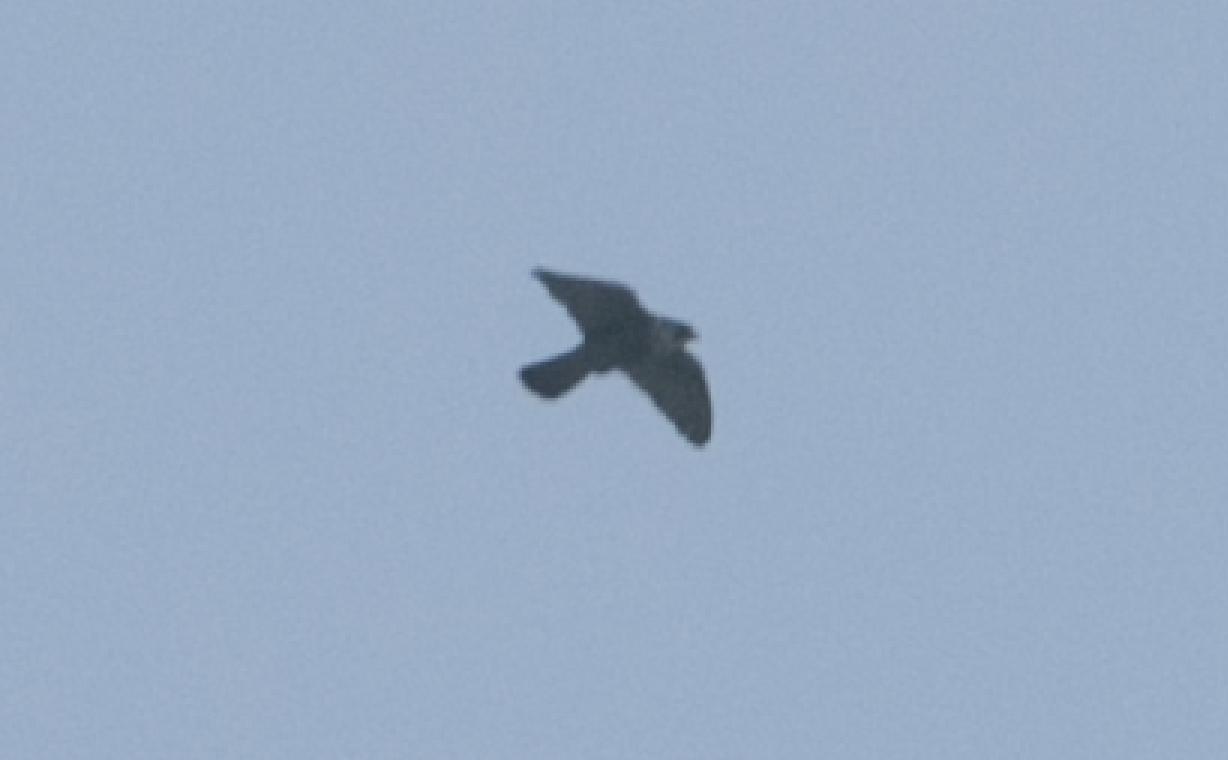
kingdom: Animalia
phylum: Chordata
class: Aves
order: Falconiformes
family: Falconidae
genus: Falco
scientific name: Falco peregrinus
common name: Peregrine falcon
